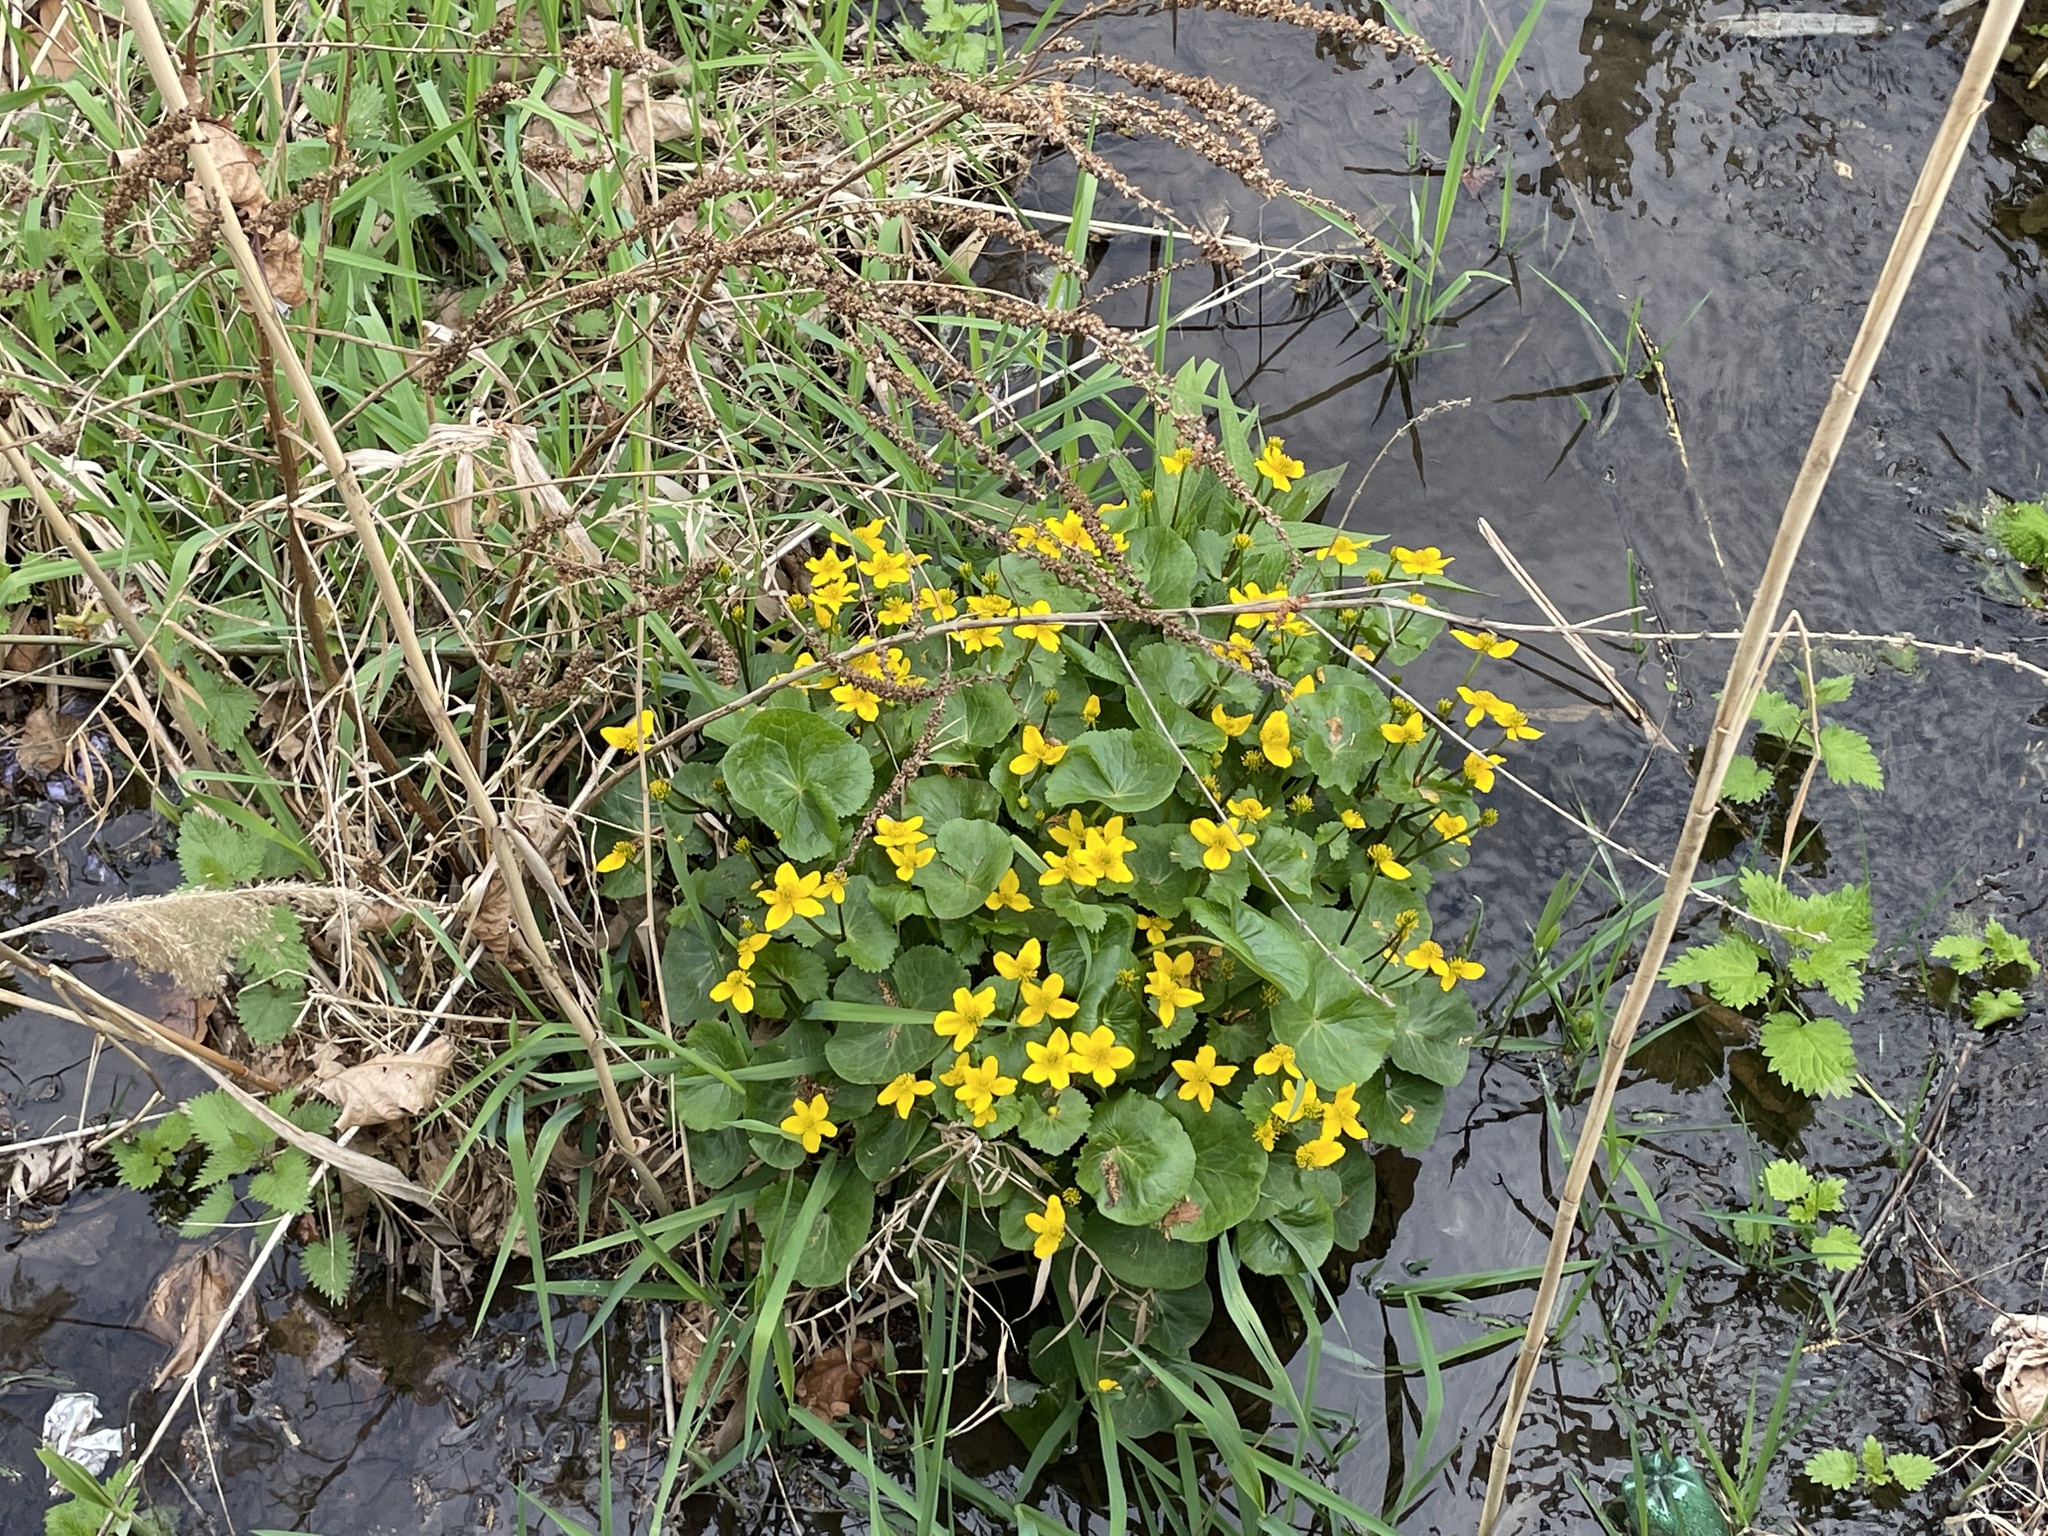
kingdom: Plantae
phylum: Tracheophyta
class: Magnoliopsida
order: Ranunculales
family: Ranunculaceae
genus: Caltha
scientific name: Caltha palustris
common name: Marsh marigold
